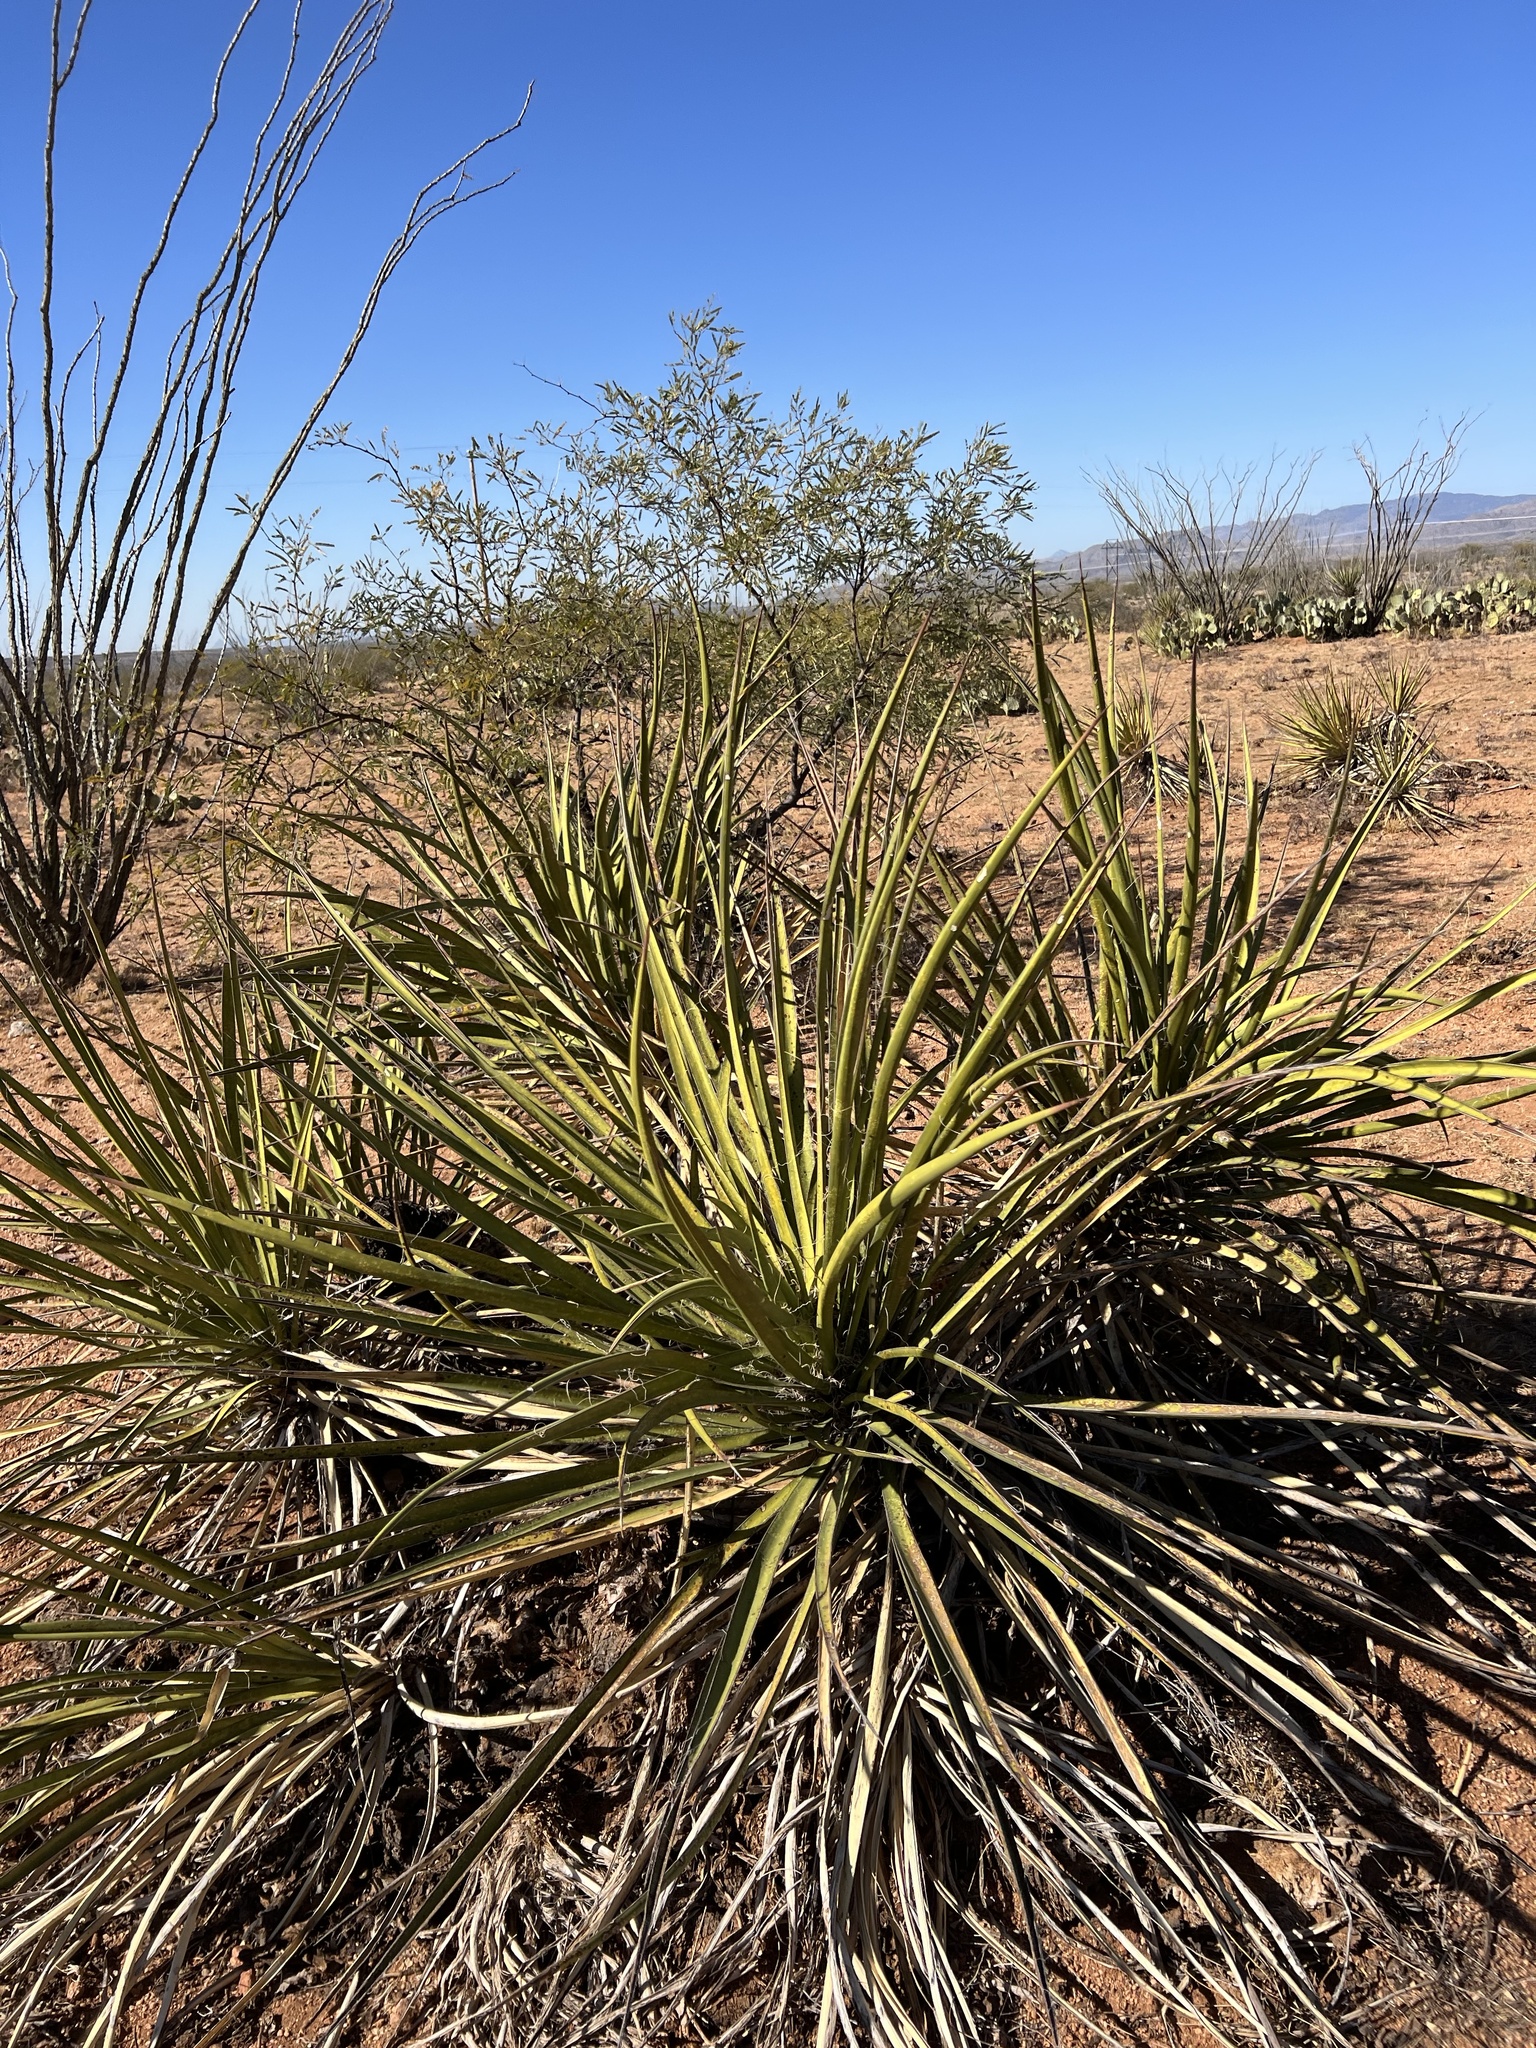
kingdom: Plantae
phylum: Tracheophyta
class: Liliopsida
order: Asparagales
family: Asparagaceae
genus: Yucca
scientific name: Yucca baccata
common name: Banana yucca
